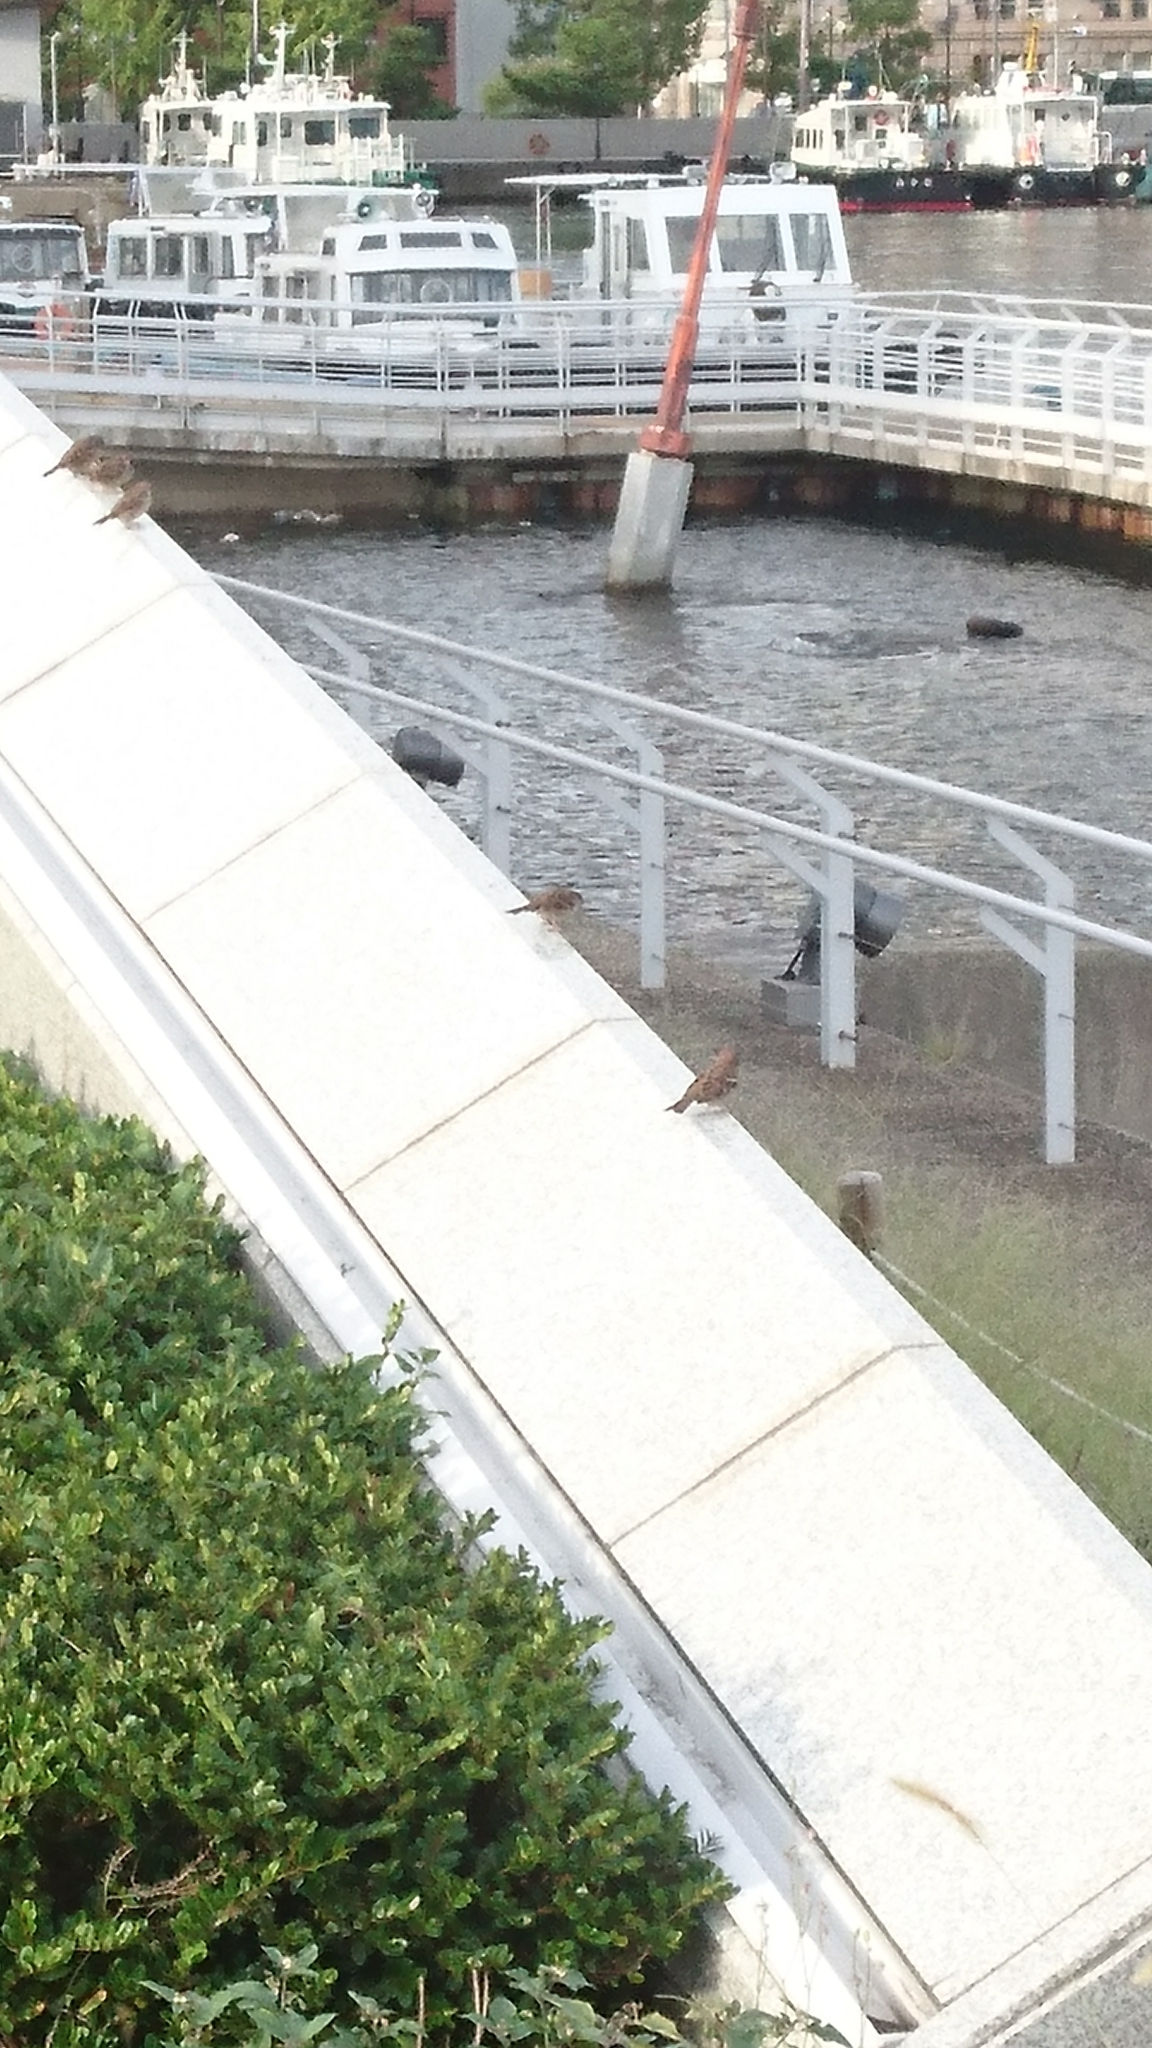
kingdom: Animalia
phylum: Chordata
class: Aves
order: Passeriformes
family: Passeridae
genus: Passer
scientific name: Passer montanus
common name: Eurasian tree sparrow
